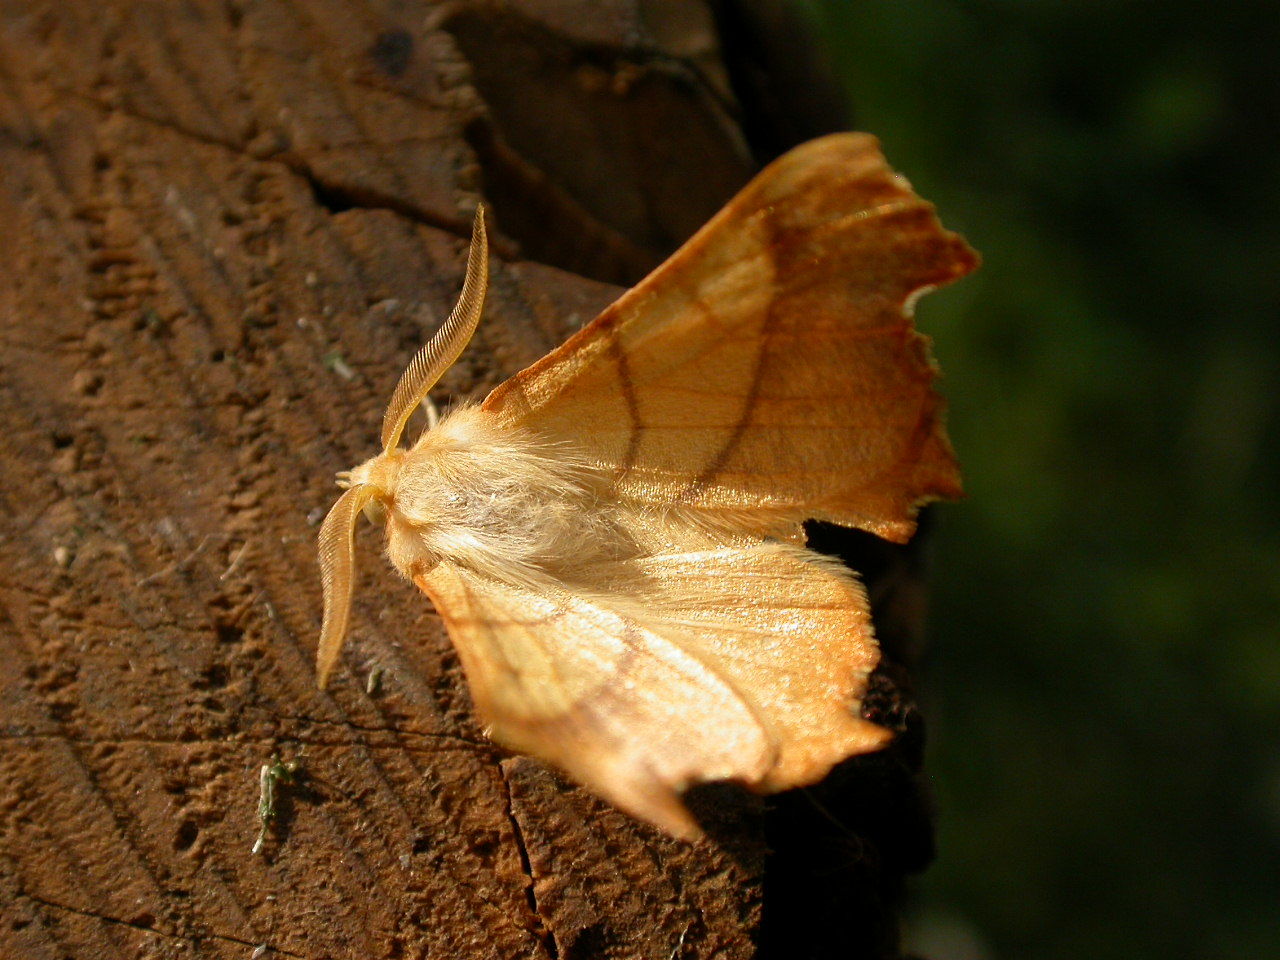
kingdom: Animalia
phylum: Arthropoda
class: Insecta
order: Lepidoptera
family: Geometridae
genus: Ennomos
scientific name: Ennomos fuscantaria
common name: Dusky thorn
